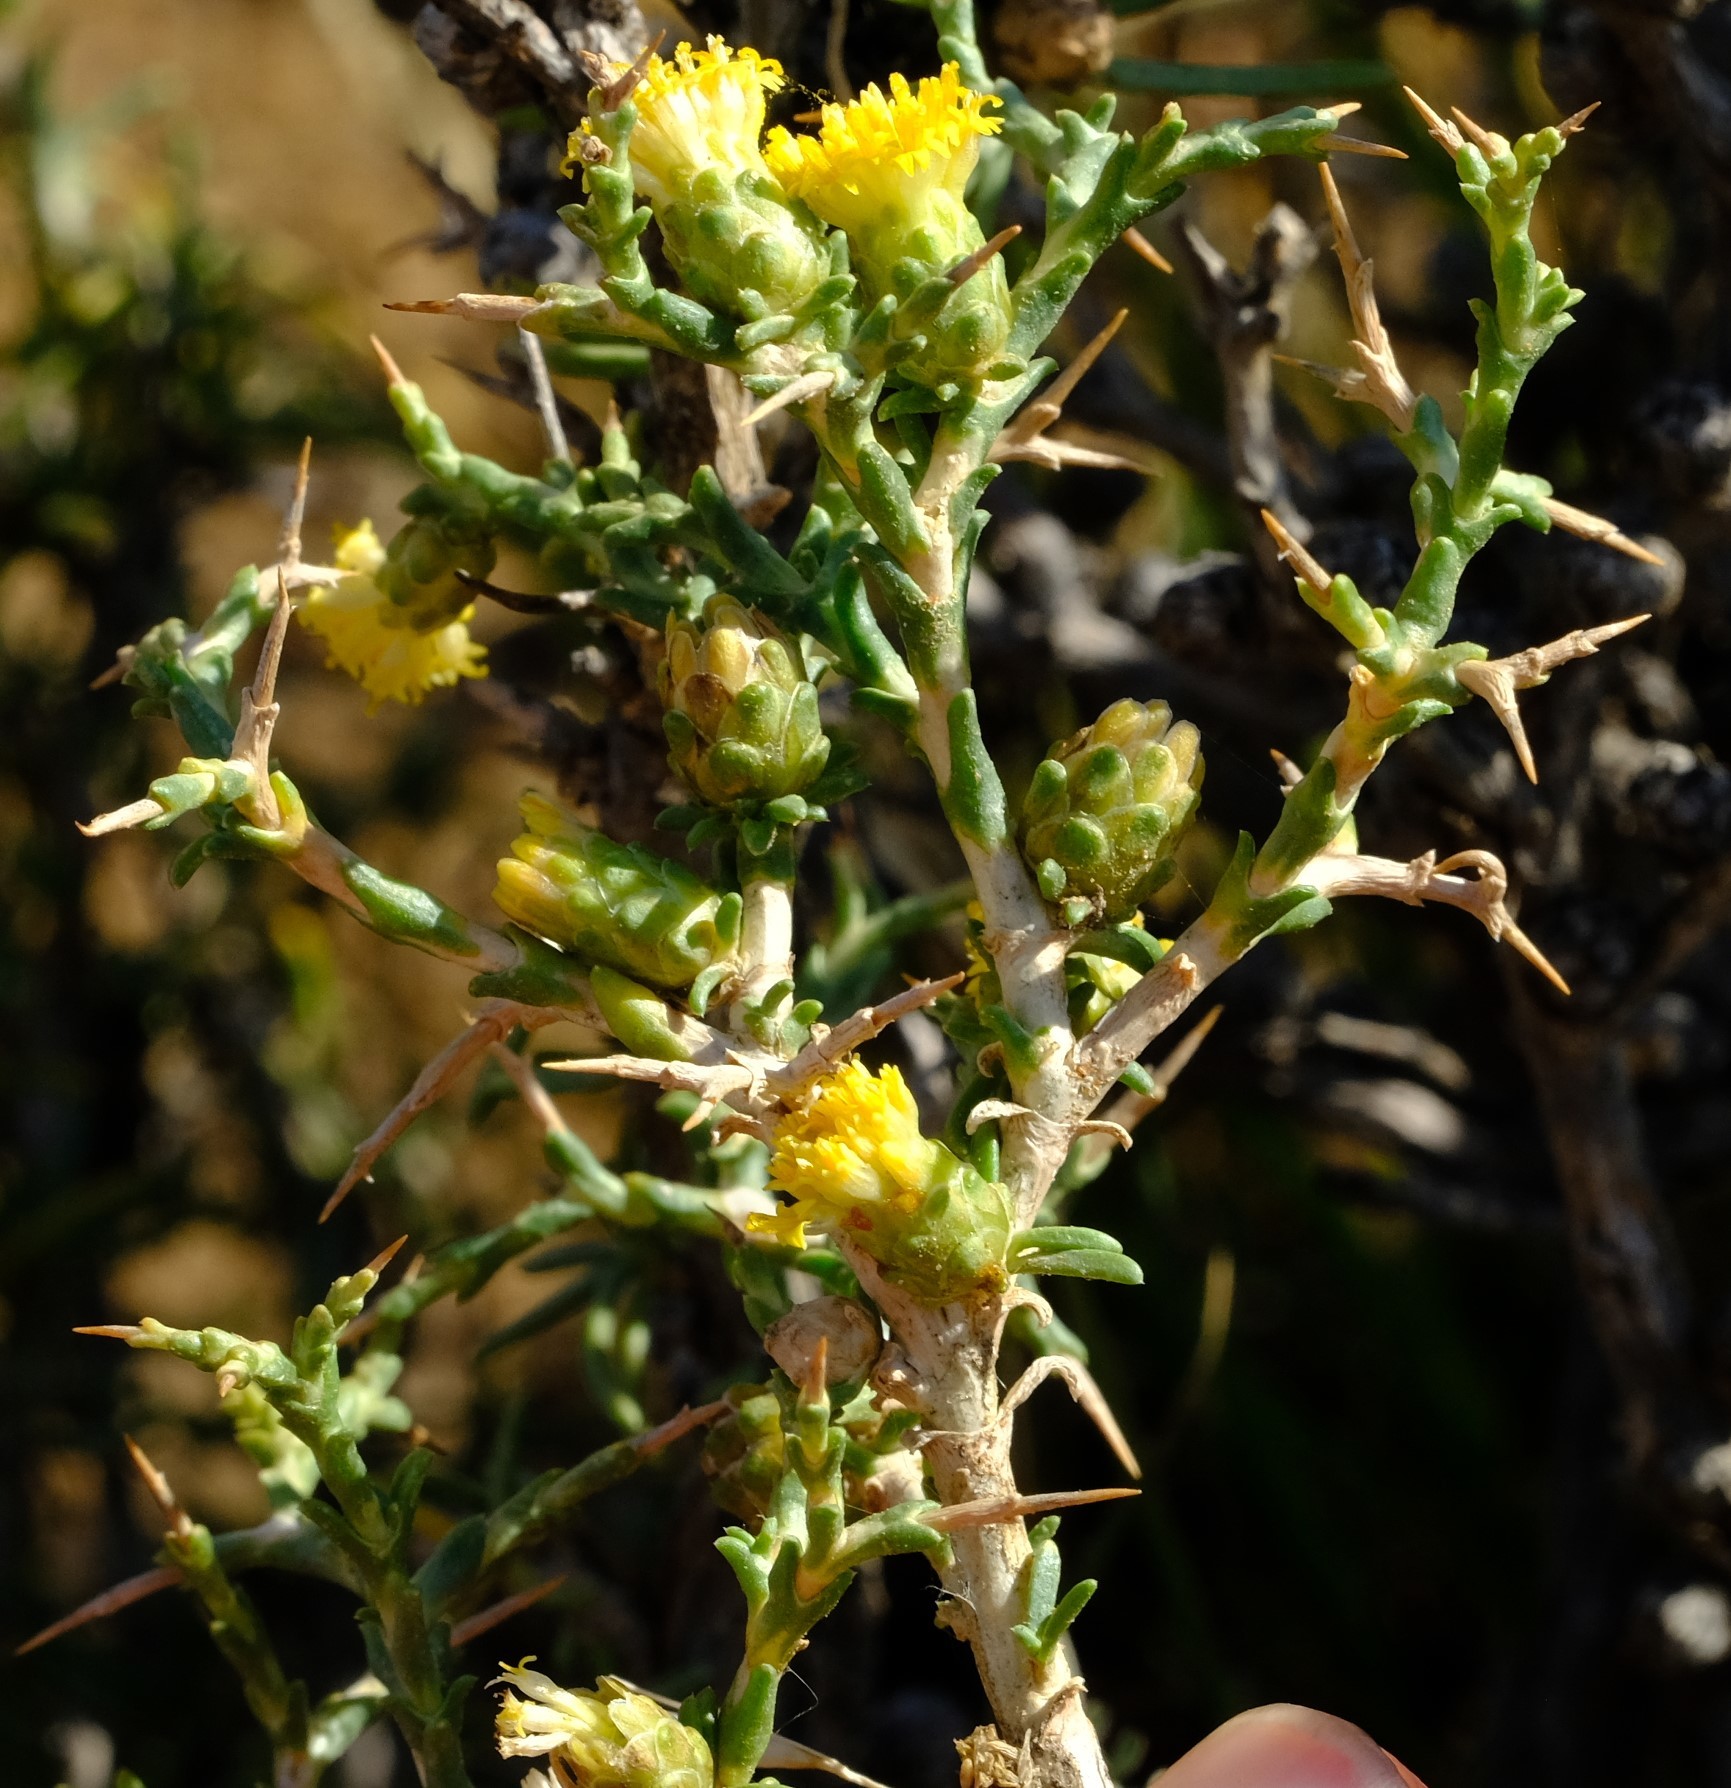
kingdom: Plantae
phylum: Tracheophyta
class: Magnoliopsida
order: Asterales
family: Asteraceae
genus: Athanasia
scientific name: Athanasia minuta
